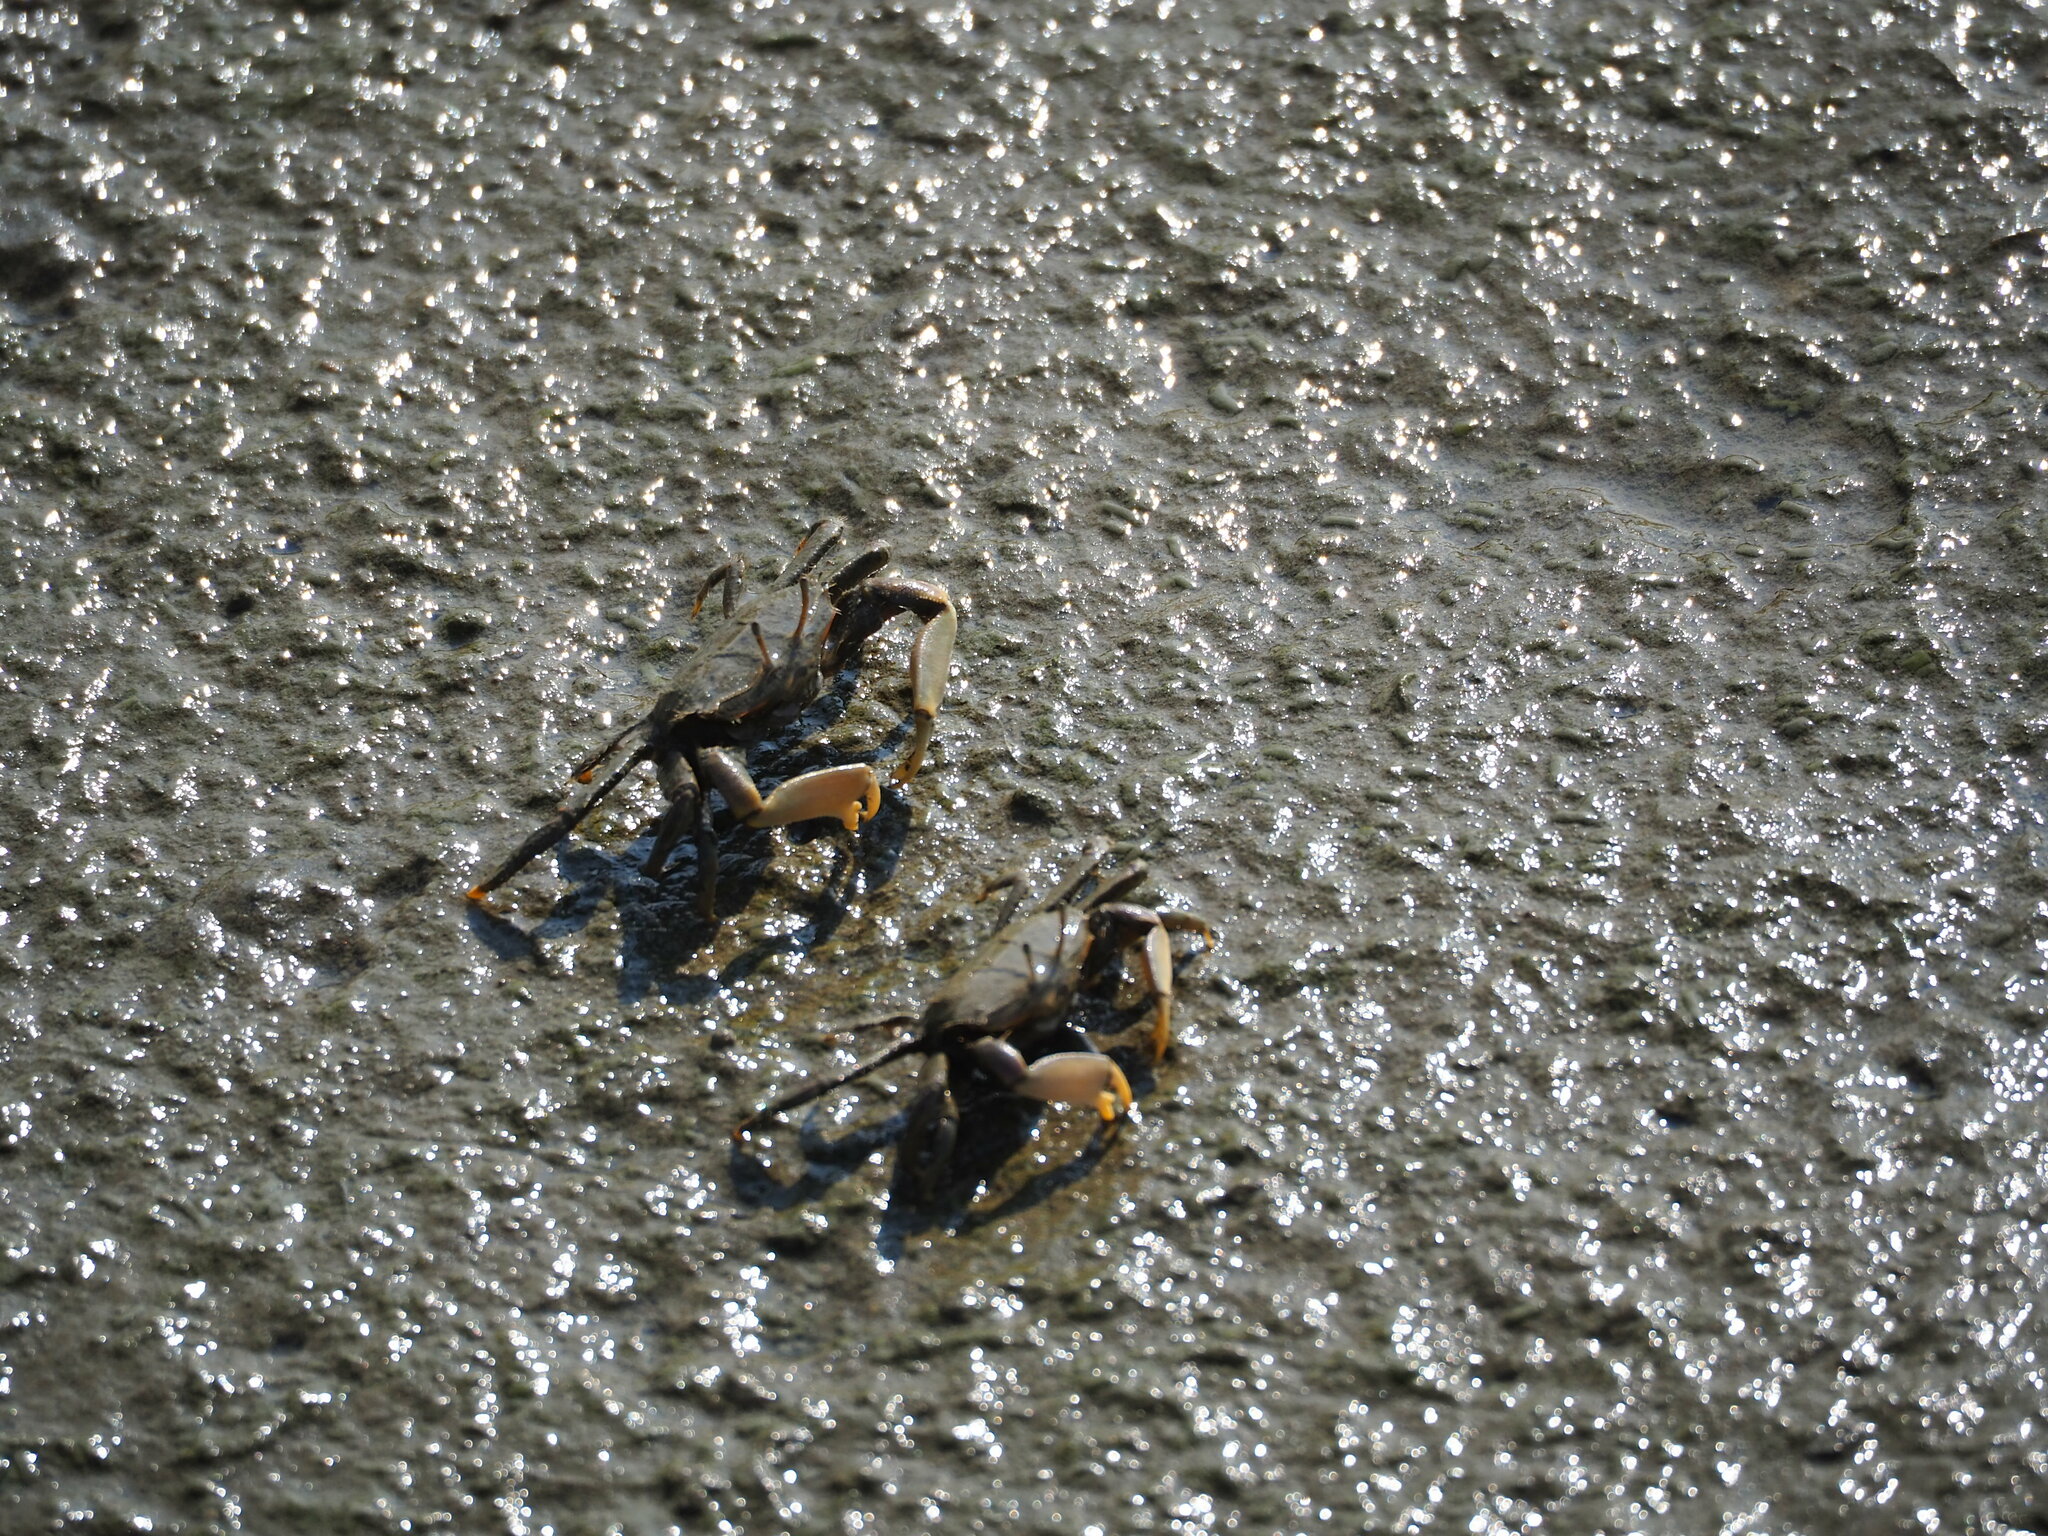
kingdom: Animalia
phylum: Arthropoda
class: Malacostraca
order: Decapoda
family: Macrophthalmidae
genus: Macrophthalmus
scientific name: Macrophthalmus banzai
